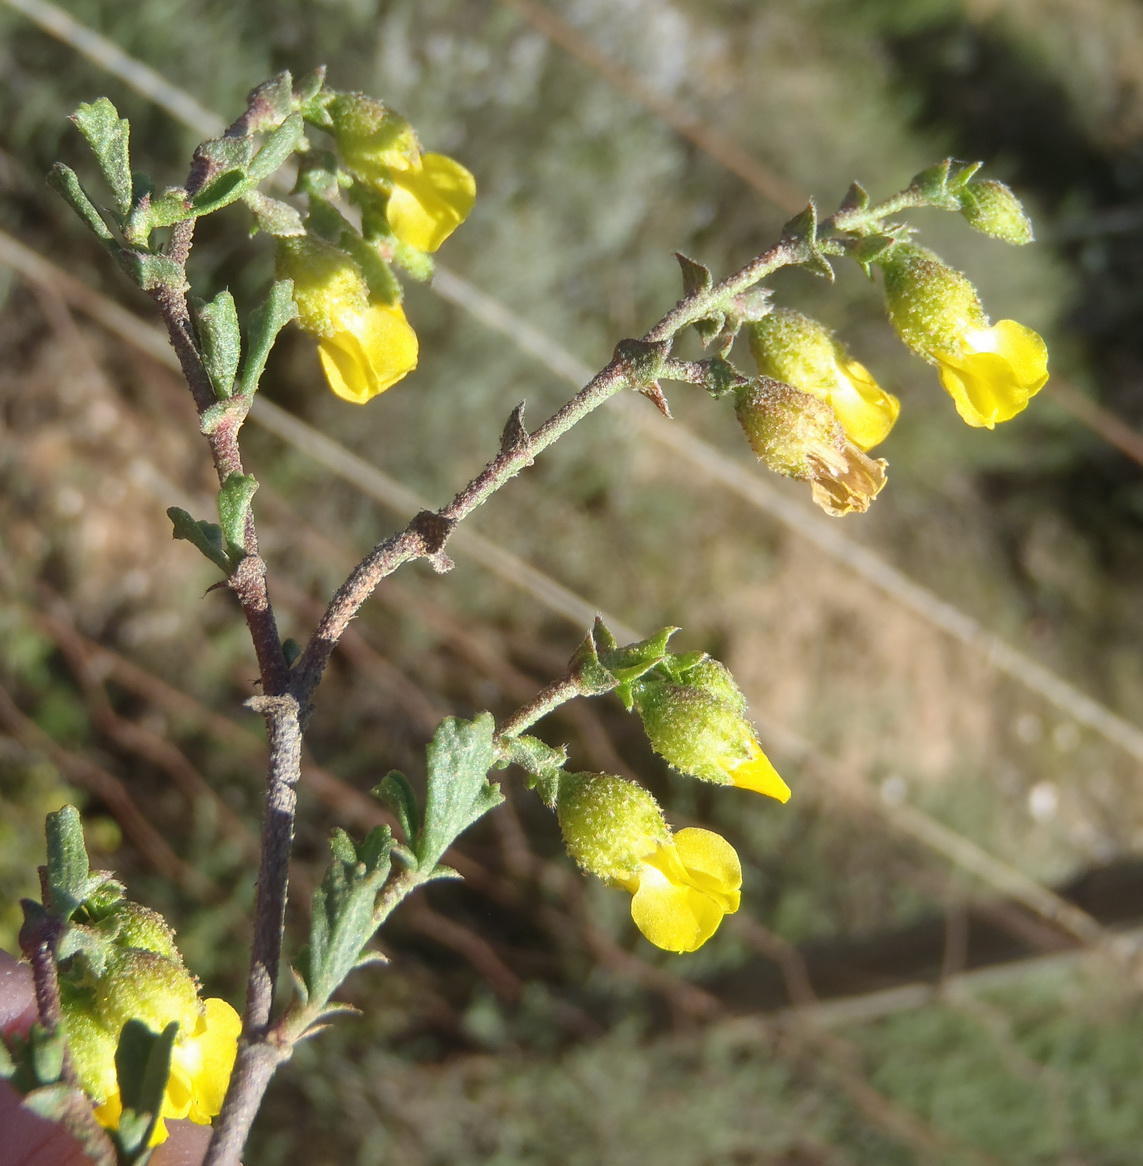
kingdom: Plantae
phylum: Tracheophyta
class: Magnoliopsida
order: Malvales
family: Malvaceae
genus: Hermannia
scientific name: Hermannia cuneifolia
